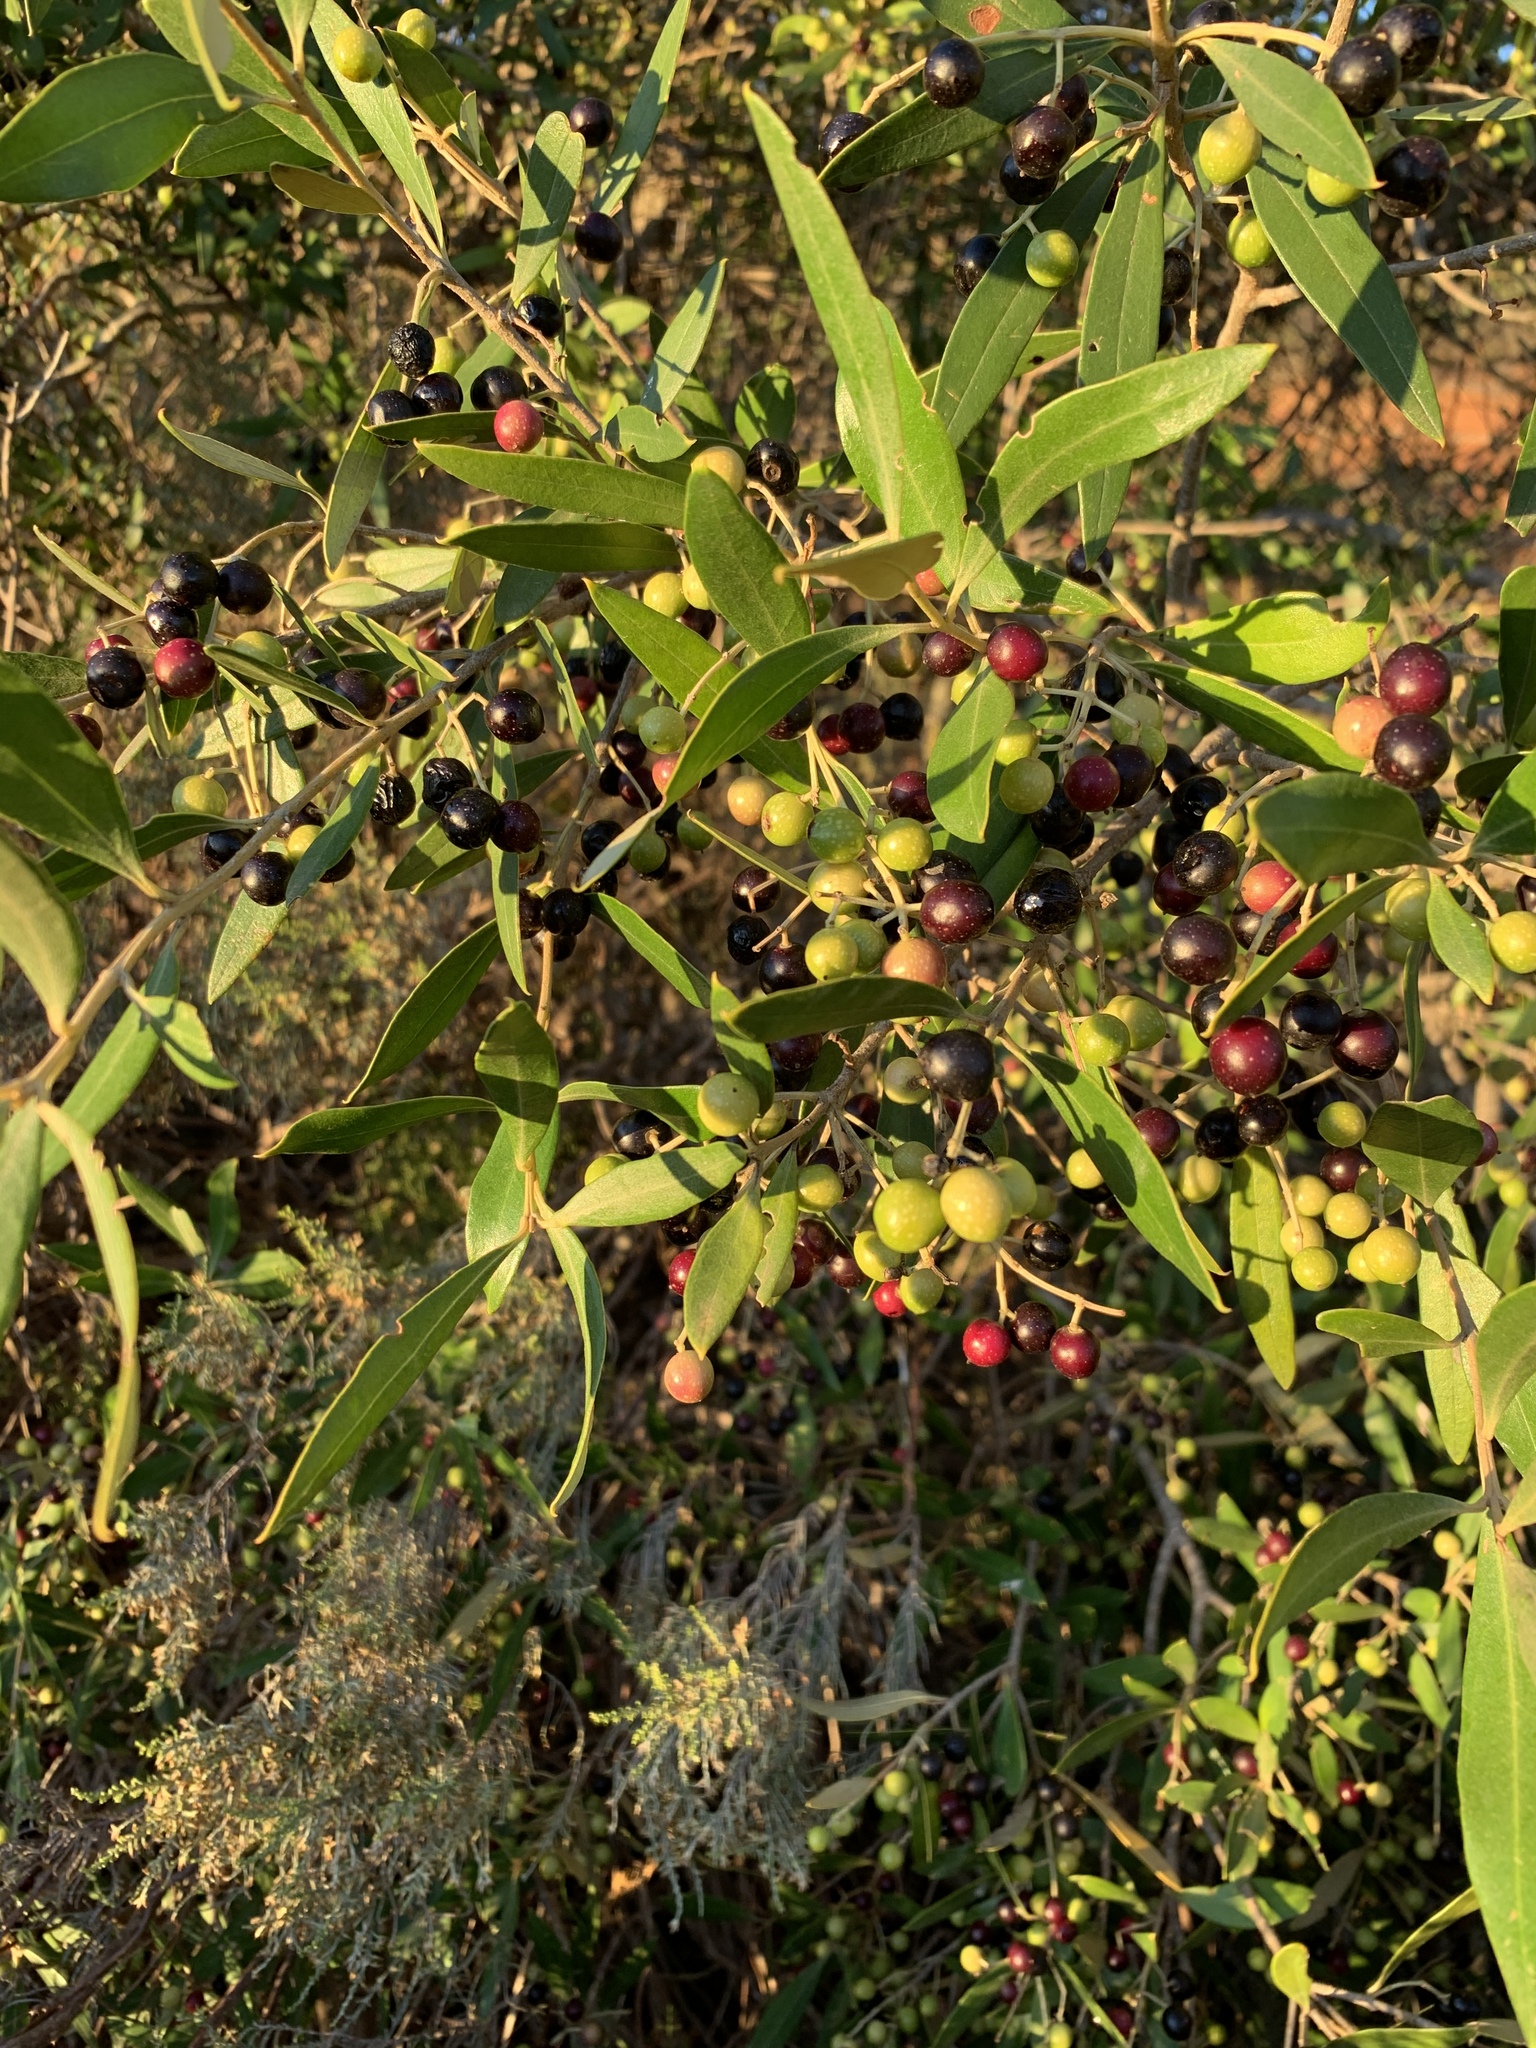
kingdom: Plantae
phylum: Tracheophyta
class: Magnoliopsida
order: Lamiales
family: Oleaceae
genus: Olea
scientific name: Olea europaea
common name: Olive
